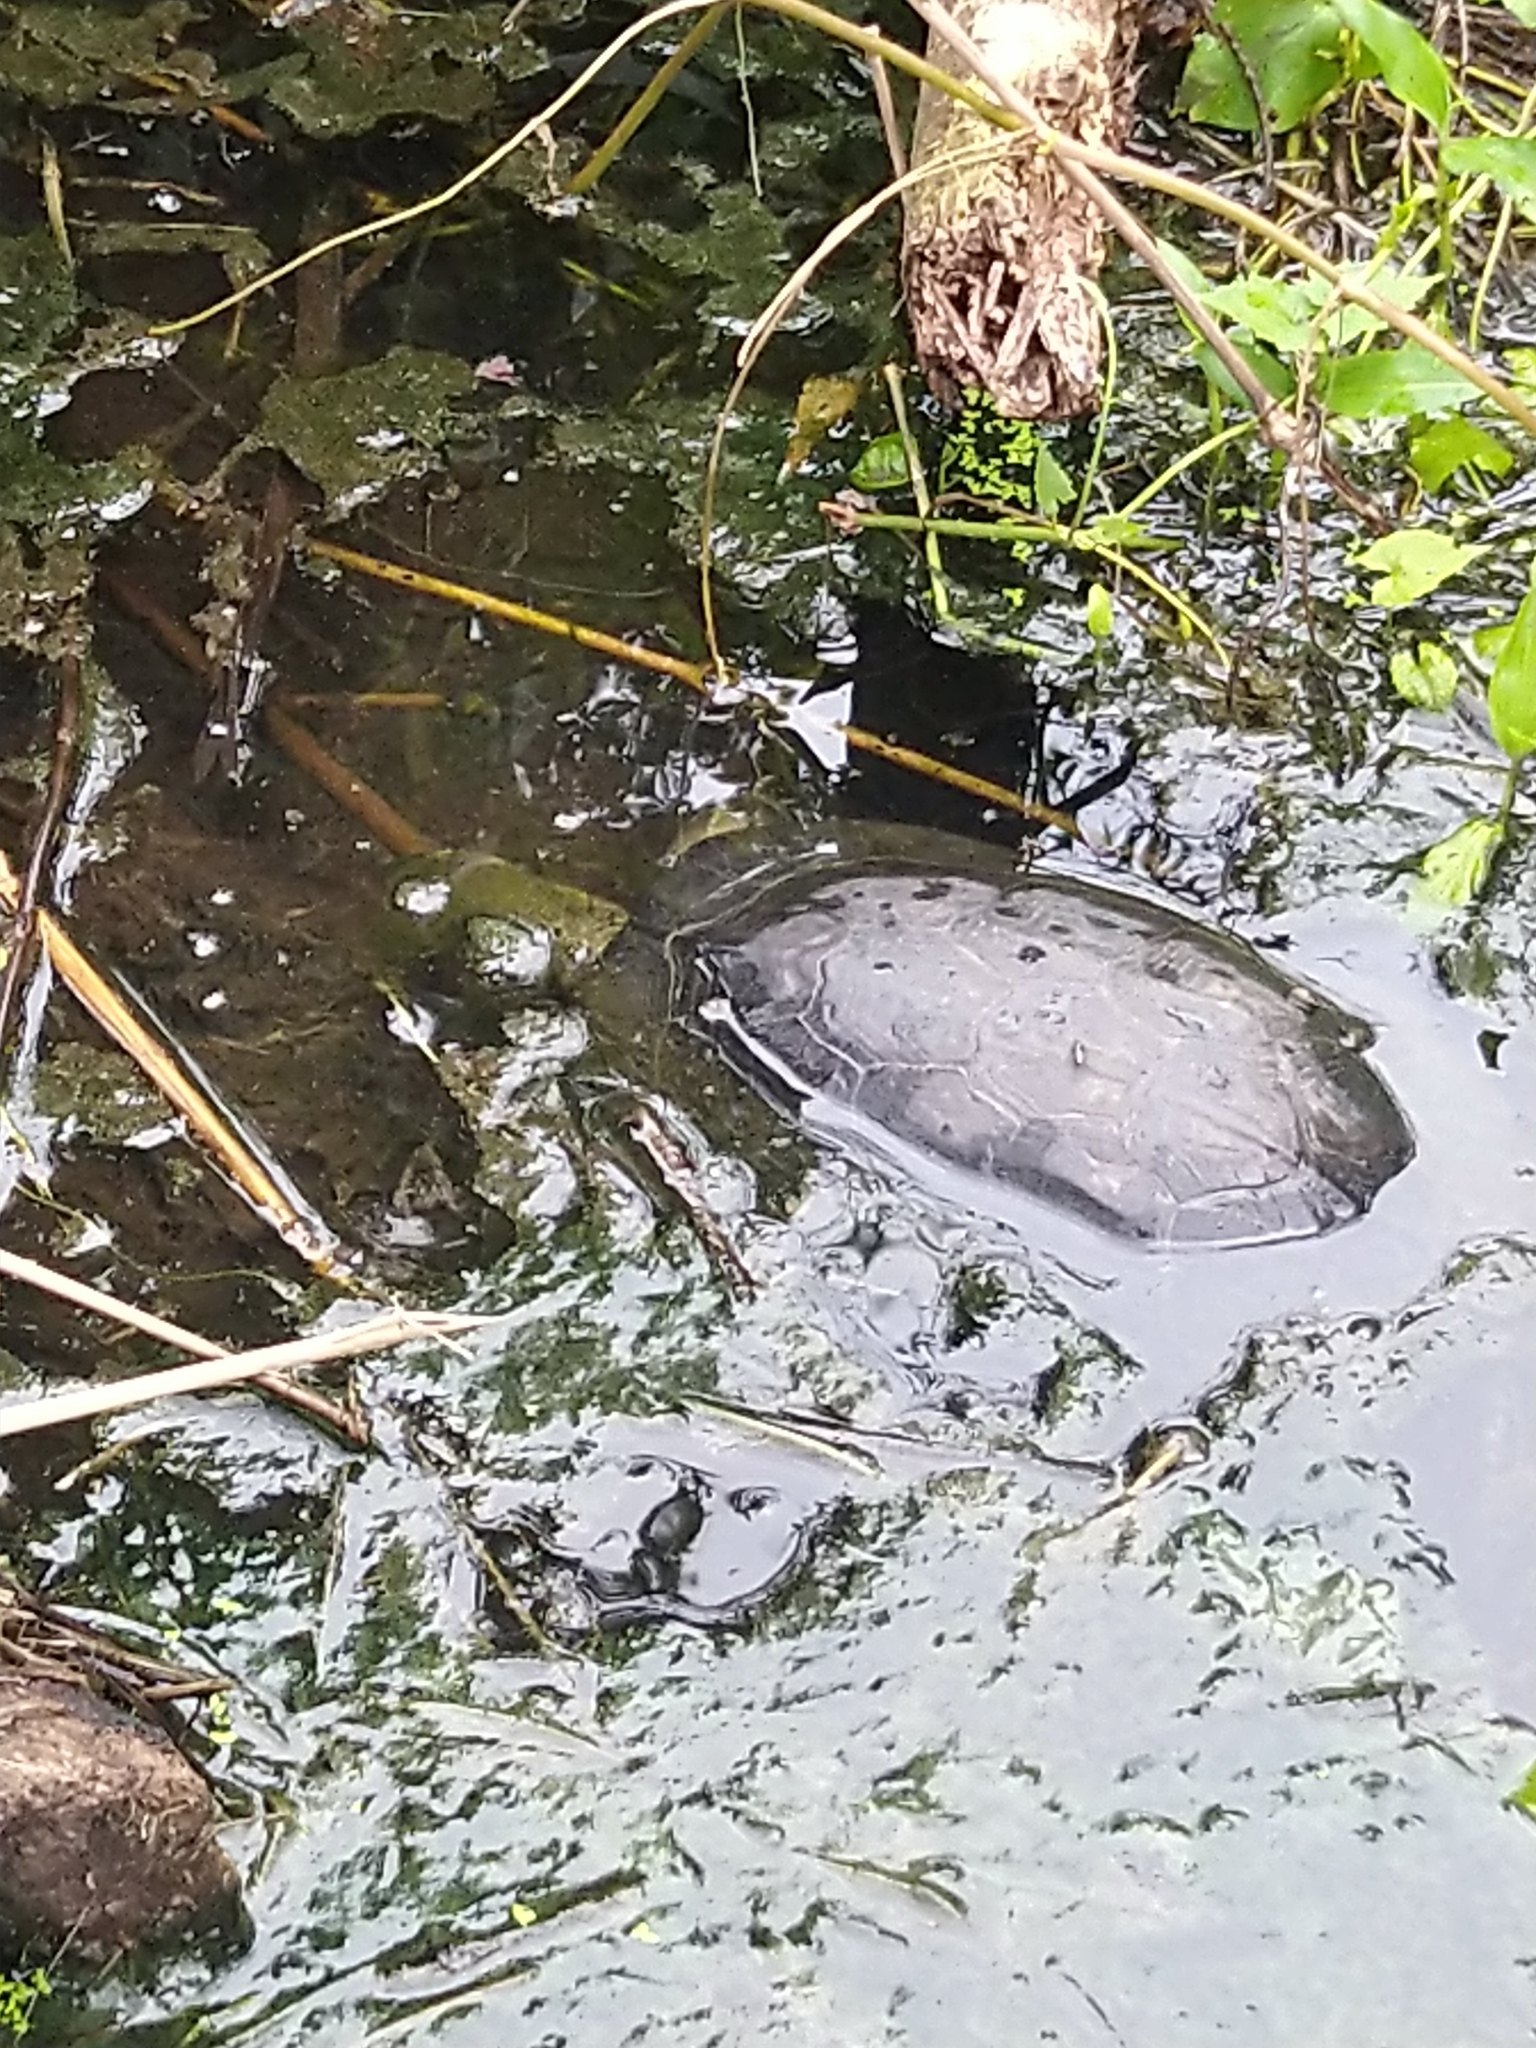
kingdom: Animalia
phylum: Chordata
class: Testudines
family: Geoemydidae
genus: Melanochelys
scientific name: Melanochelys trijuga
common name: Indian black turtle
